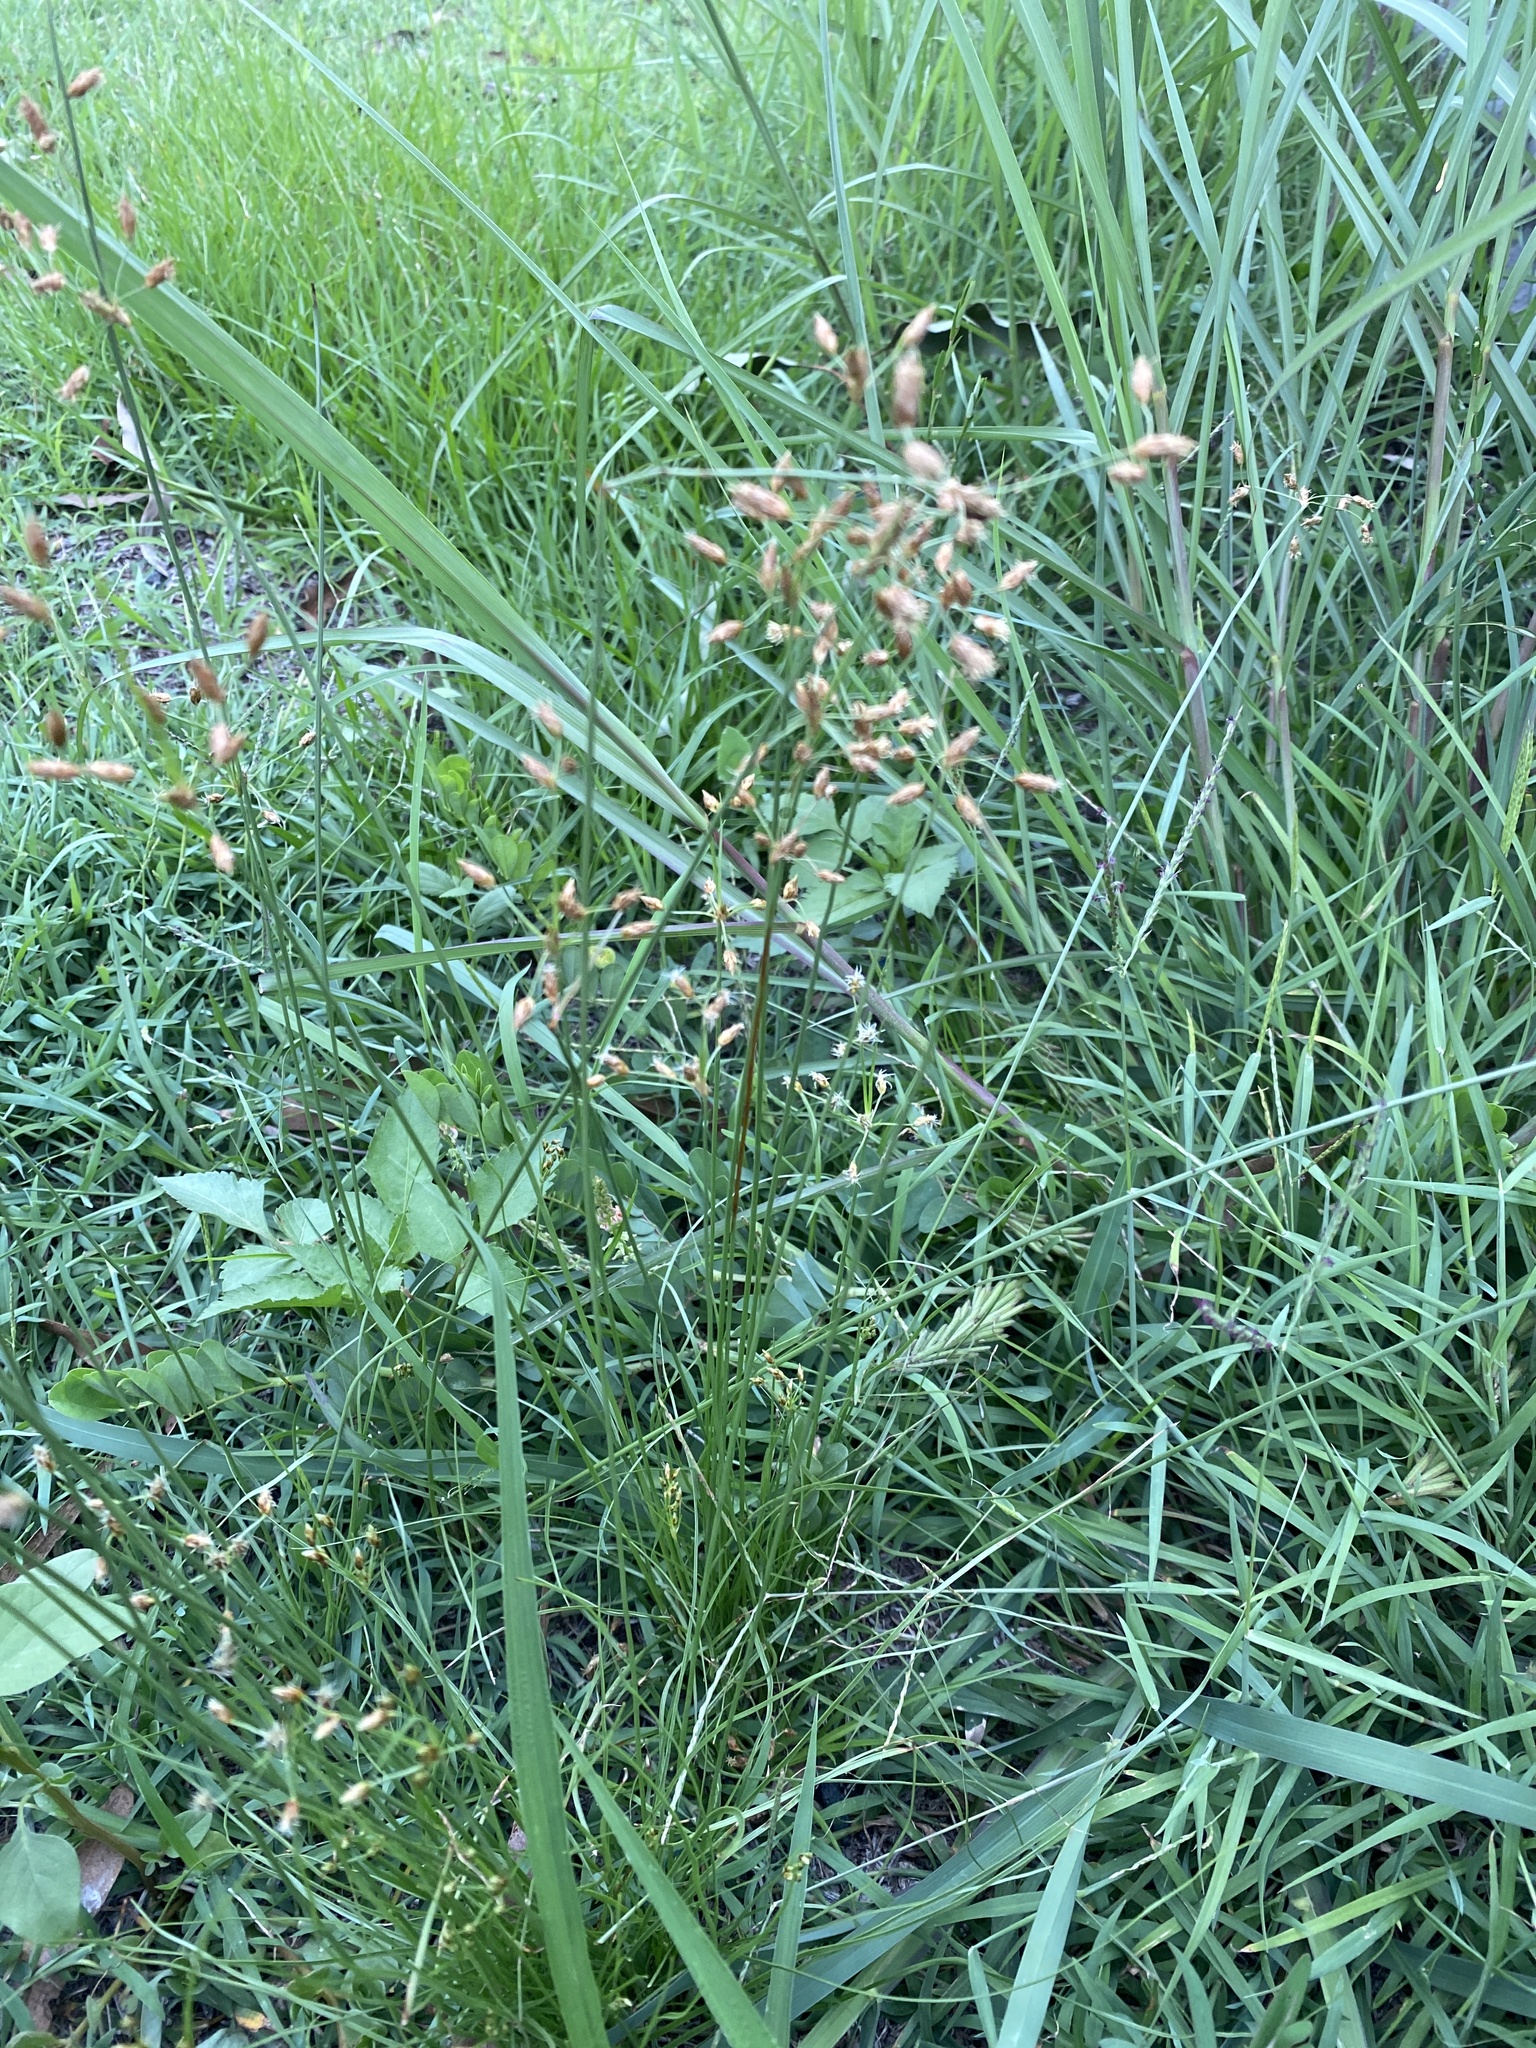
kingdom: Plantae
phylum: Tracheophyta
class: Liliopsida
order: Poales
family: Cyperaceae
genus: Fimbristylis
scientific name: Fimbristylis dichotoma
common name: Forked fimbry
